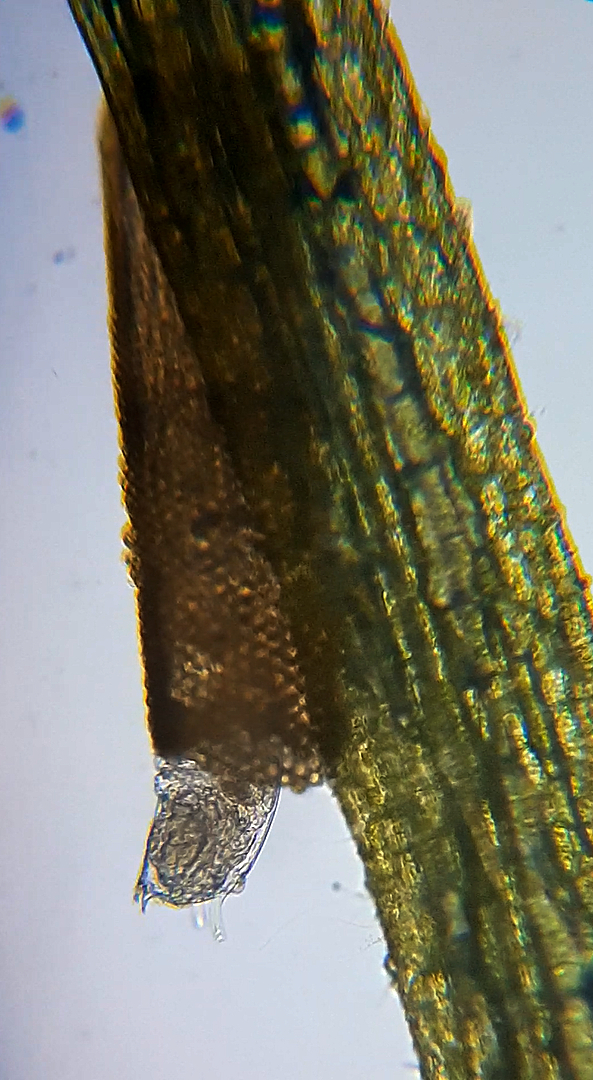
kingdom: Animalia
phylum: Rotifera
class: Eurotatoria
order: Flosculariaceae
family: Flosculariidae
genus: Floscularia
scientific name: Floscularia ringens
